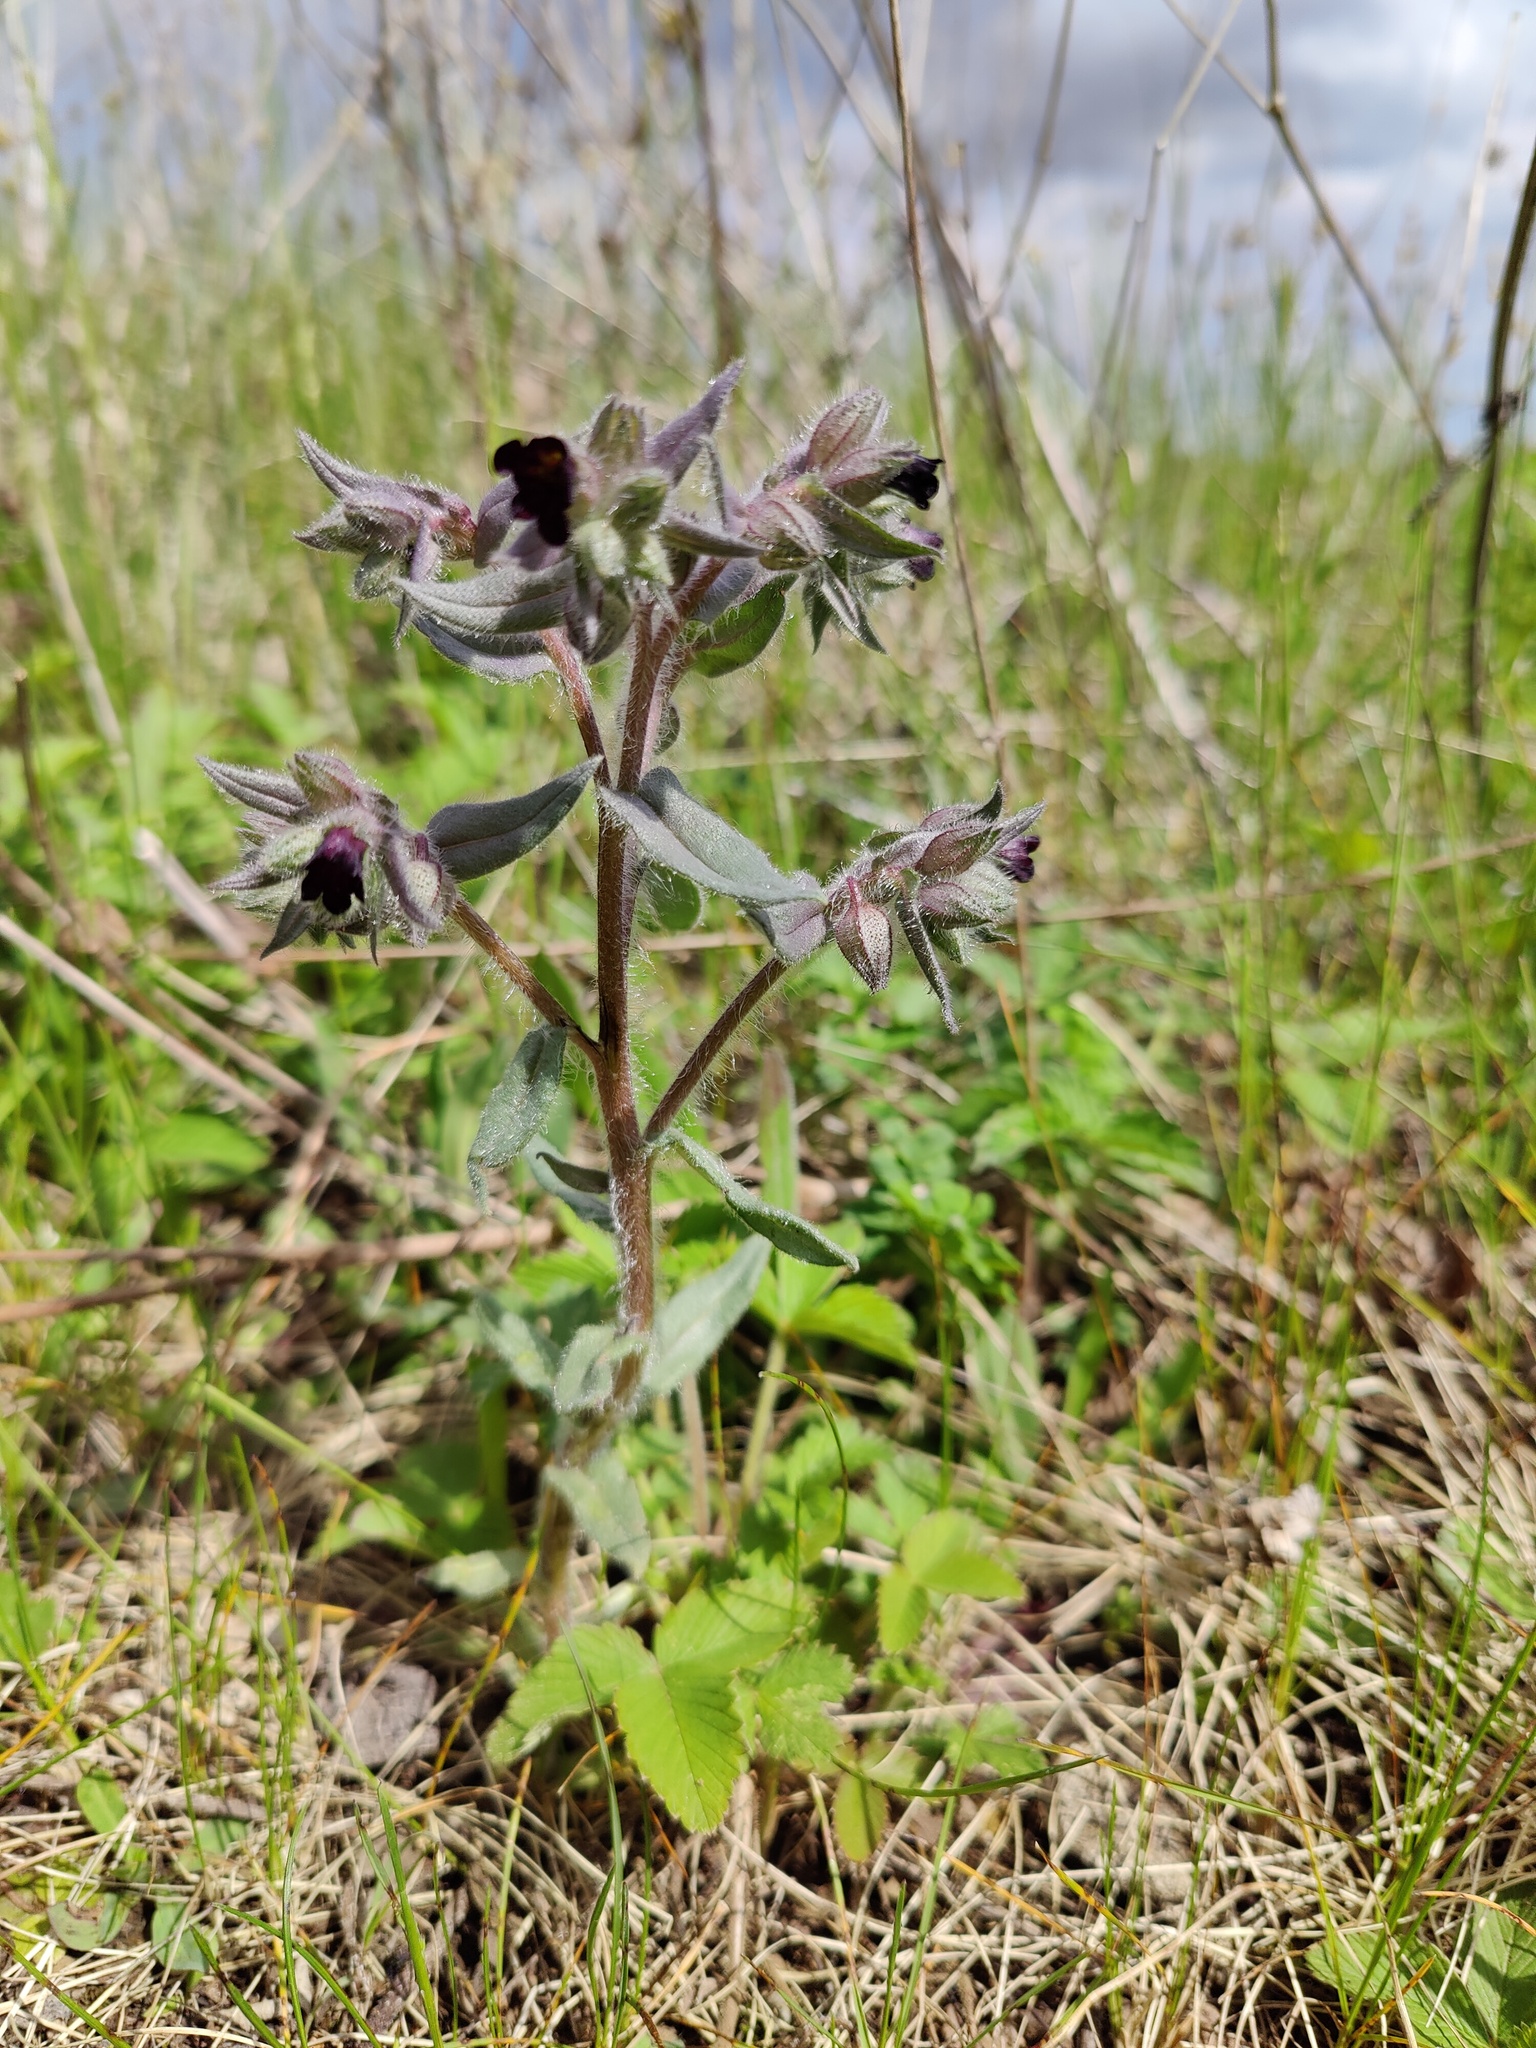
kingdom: Plantae
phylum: Tracheophyta
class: Magnoliopsida
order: Boraginales
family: Boraginaceae
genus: Nonea
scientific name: Nonea pulla
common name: Brown nonea
